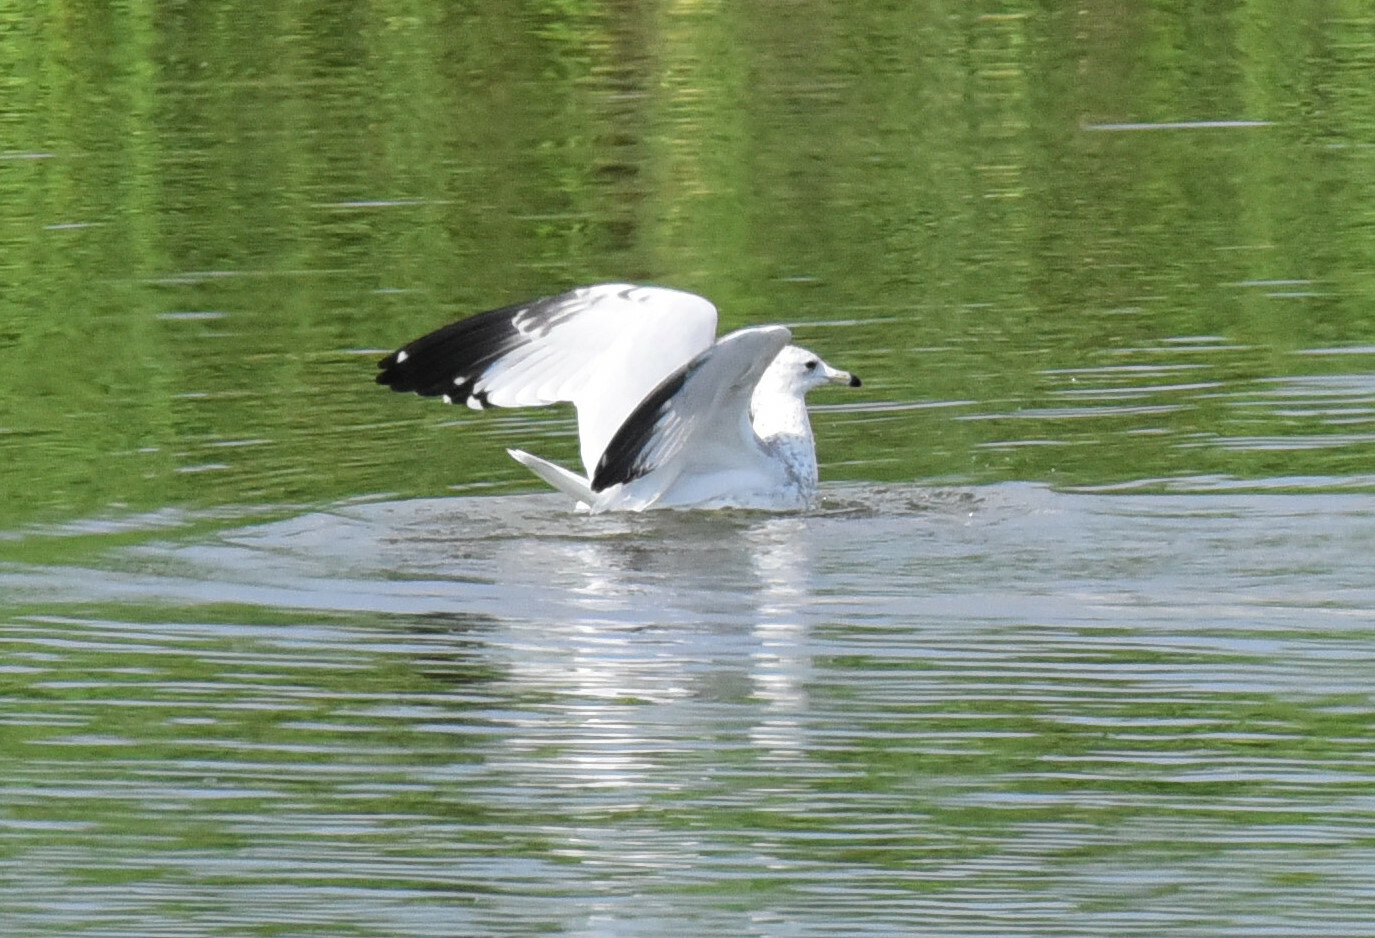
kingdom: Animalia
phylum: Chordata
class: Aves
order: Charadriiformes
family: Laridae
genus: Larus
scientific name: Larus delawarensis
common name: Ring-billed gull
